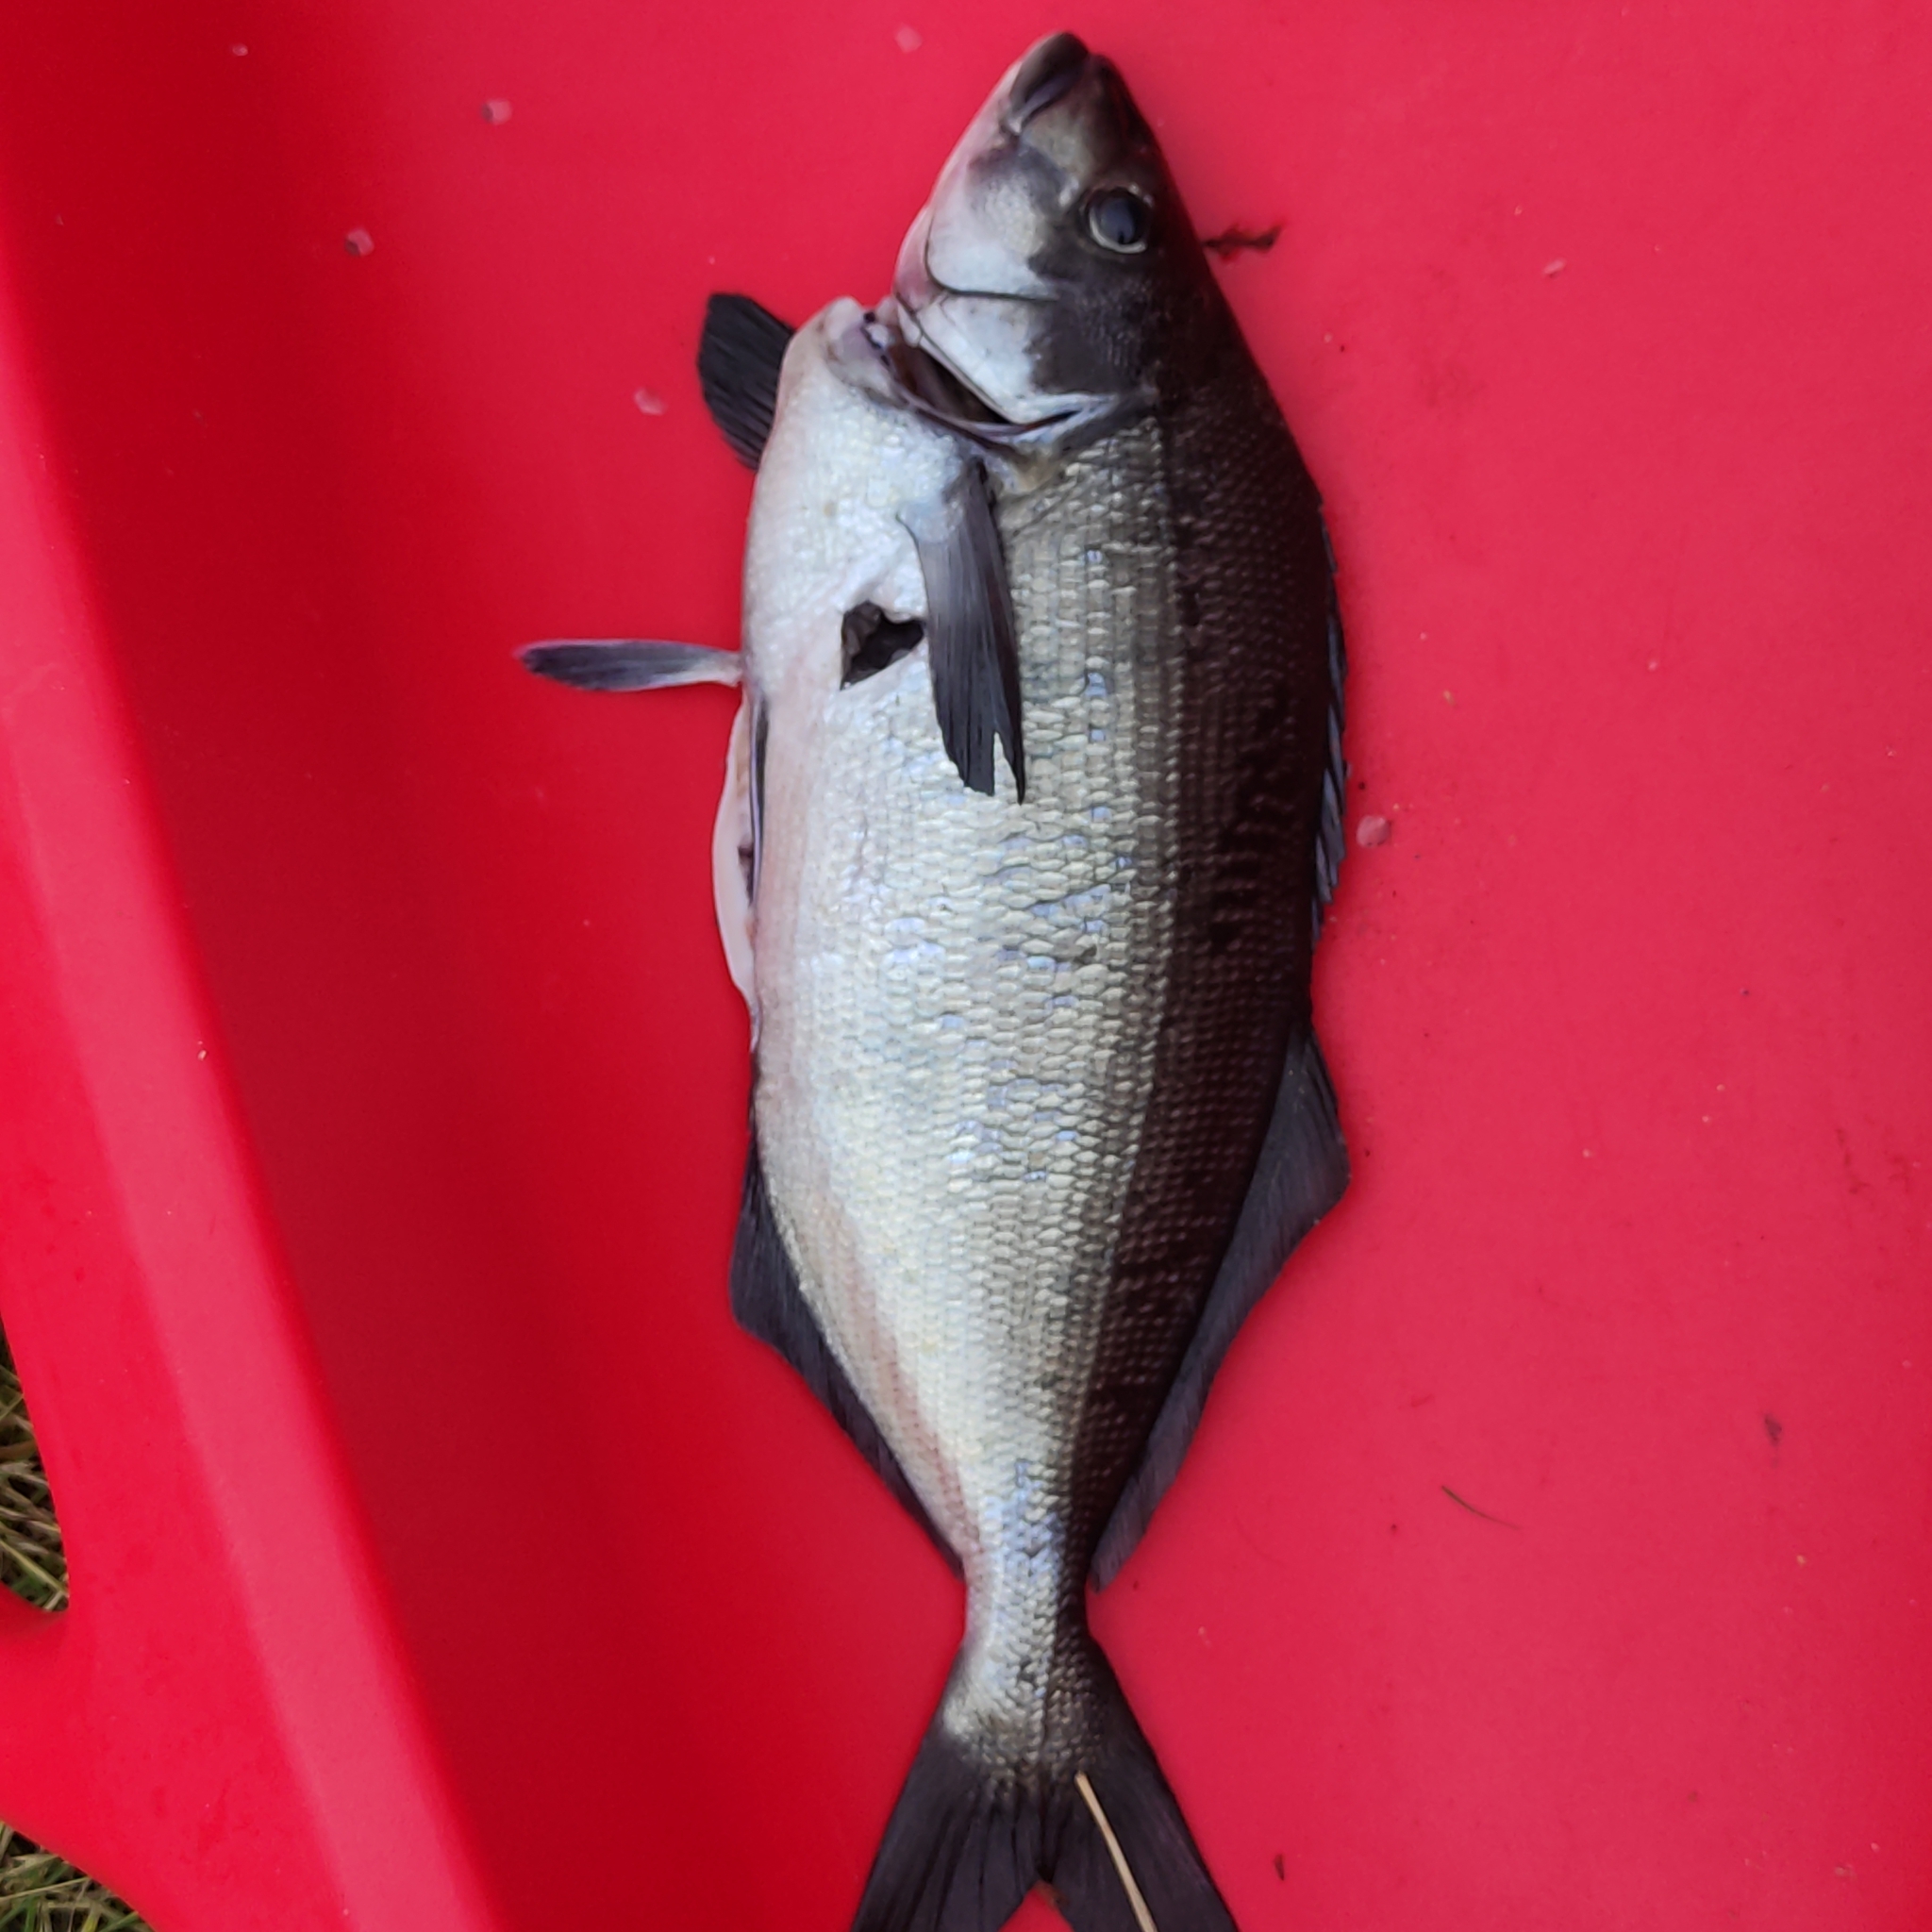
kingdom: Animalia
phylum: Chordata
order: Perciformes
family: Latridae
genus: Latridopsis
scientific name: Latridopsis ciliaris
